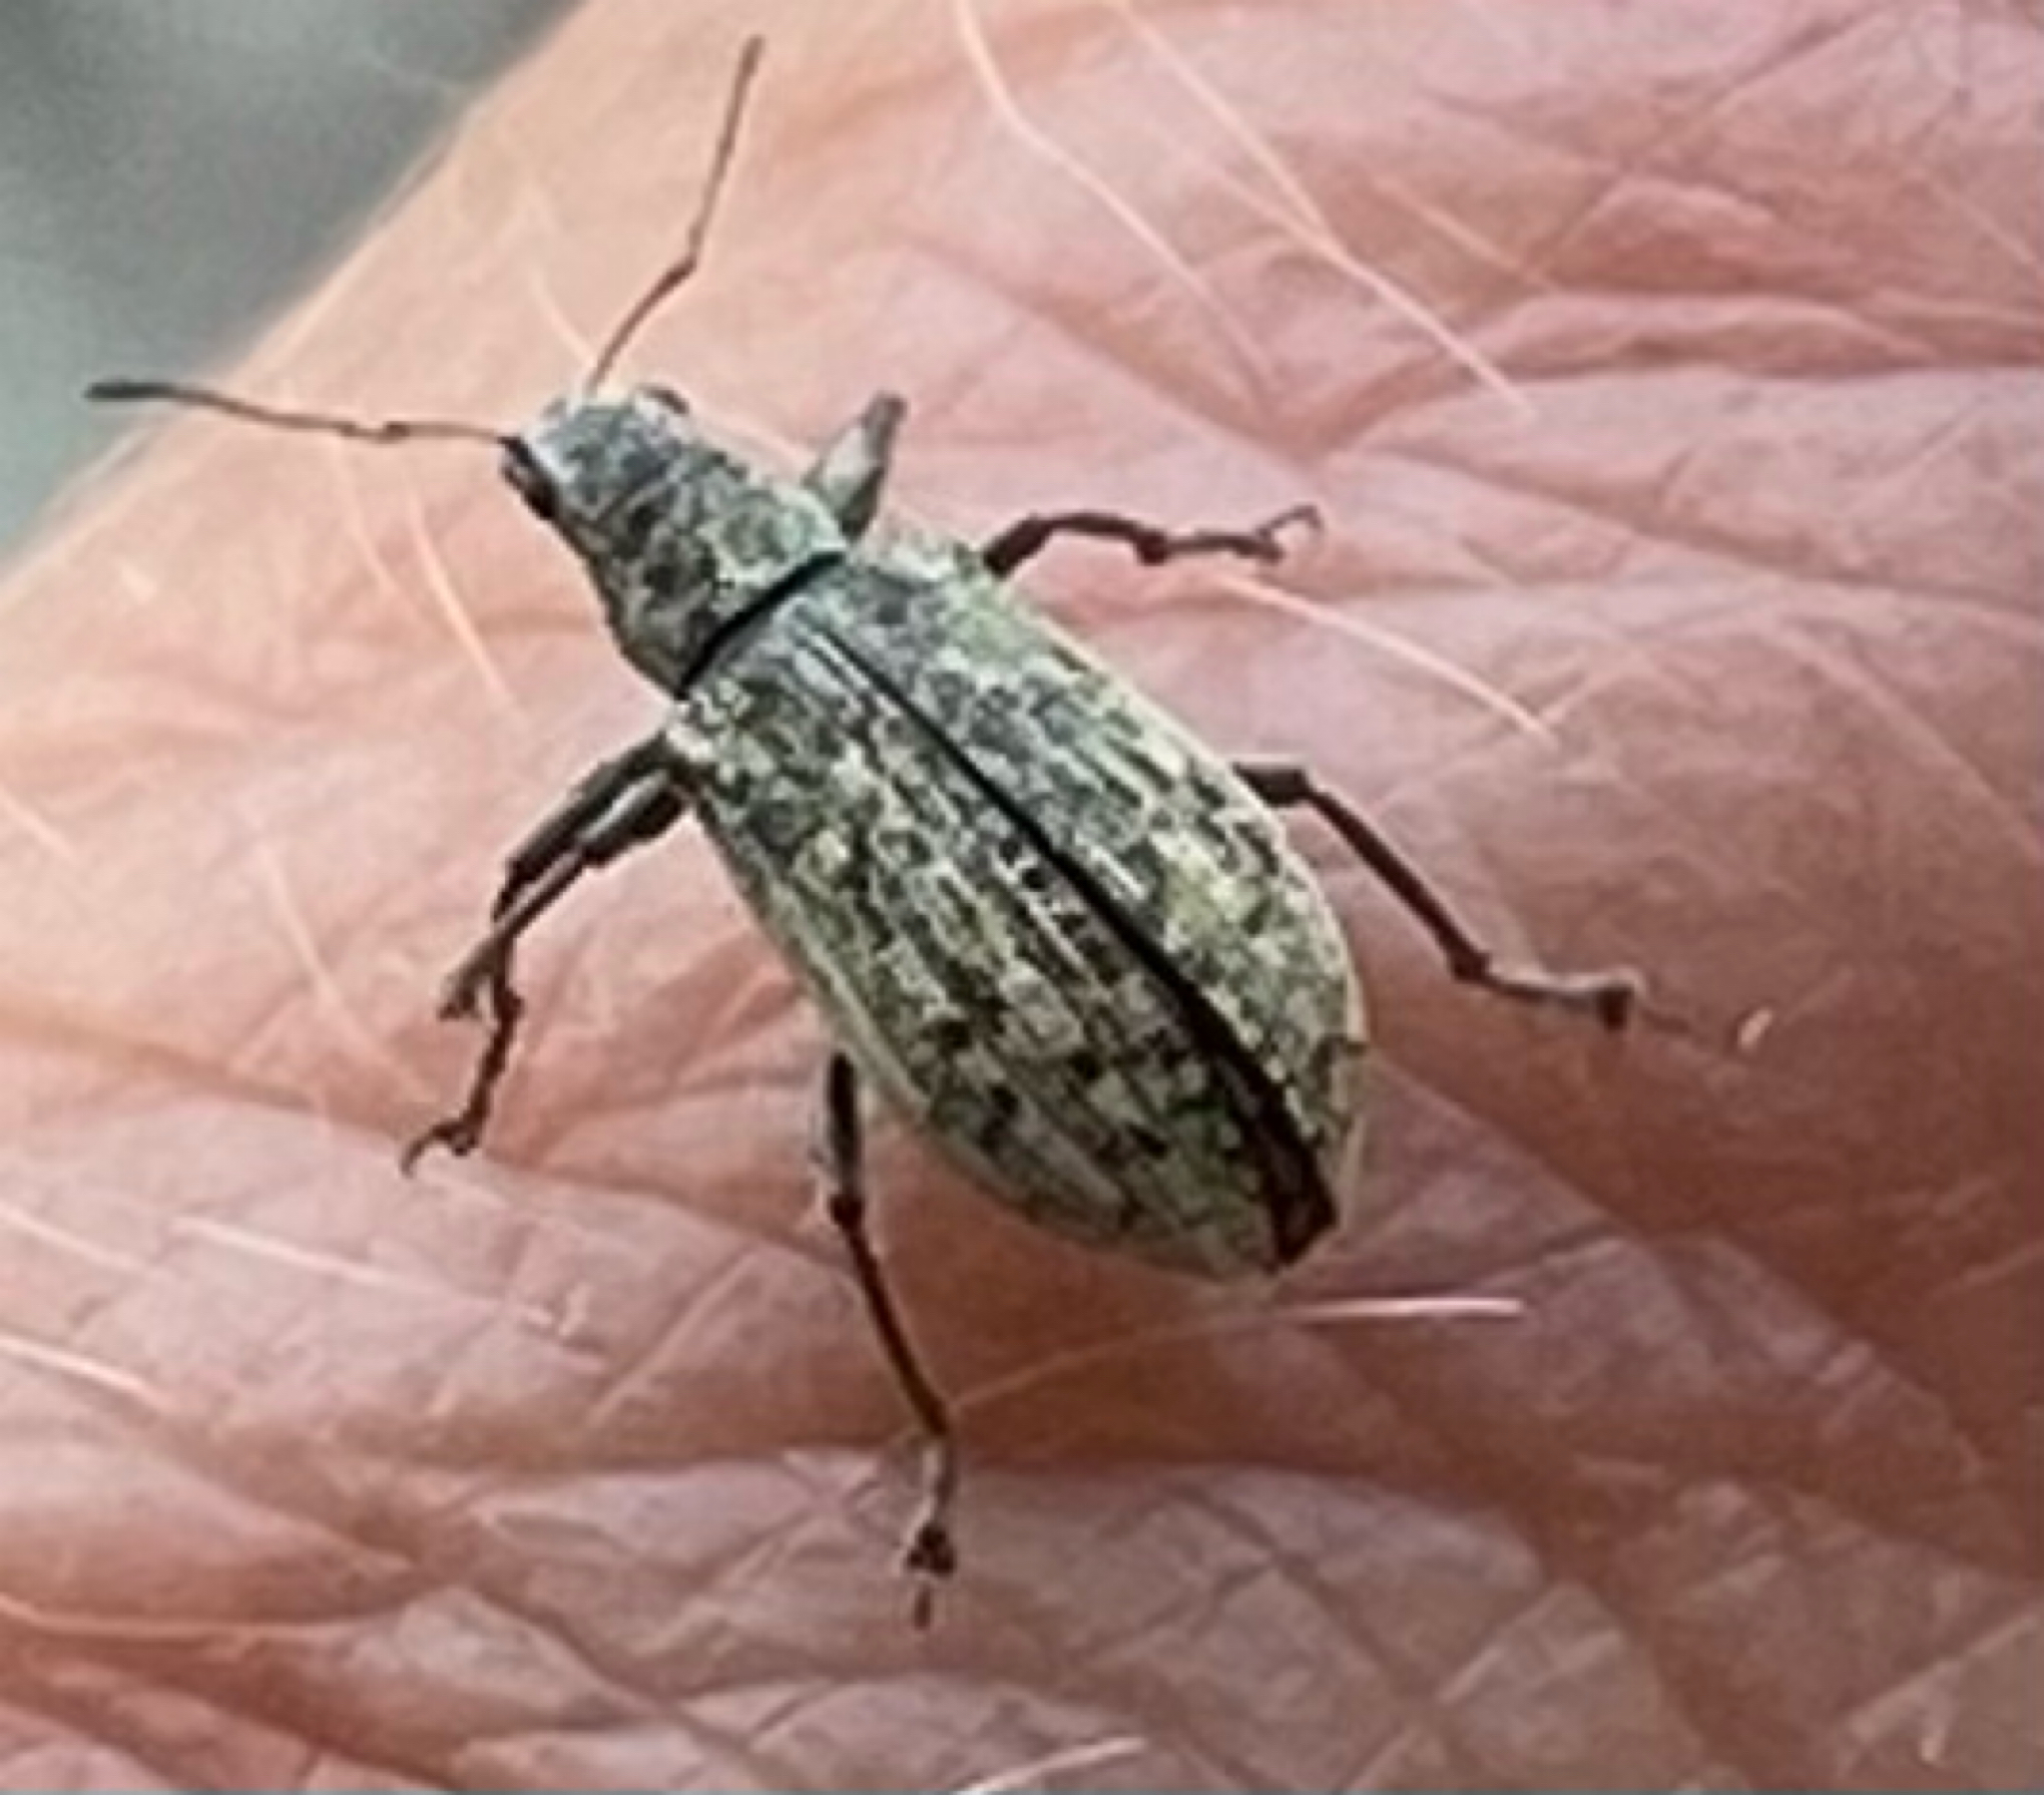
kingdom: Animalia
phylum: Arthropoda
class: Insecta
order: Coleoptera
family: Curculionidae
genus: Polydrusus
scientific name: Polydrusus cervinus
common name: Weevil
